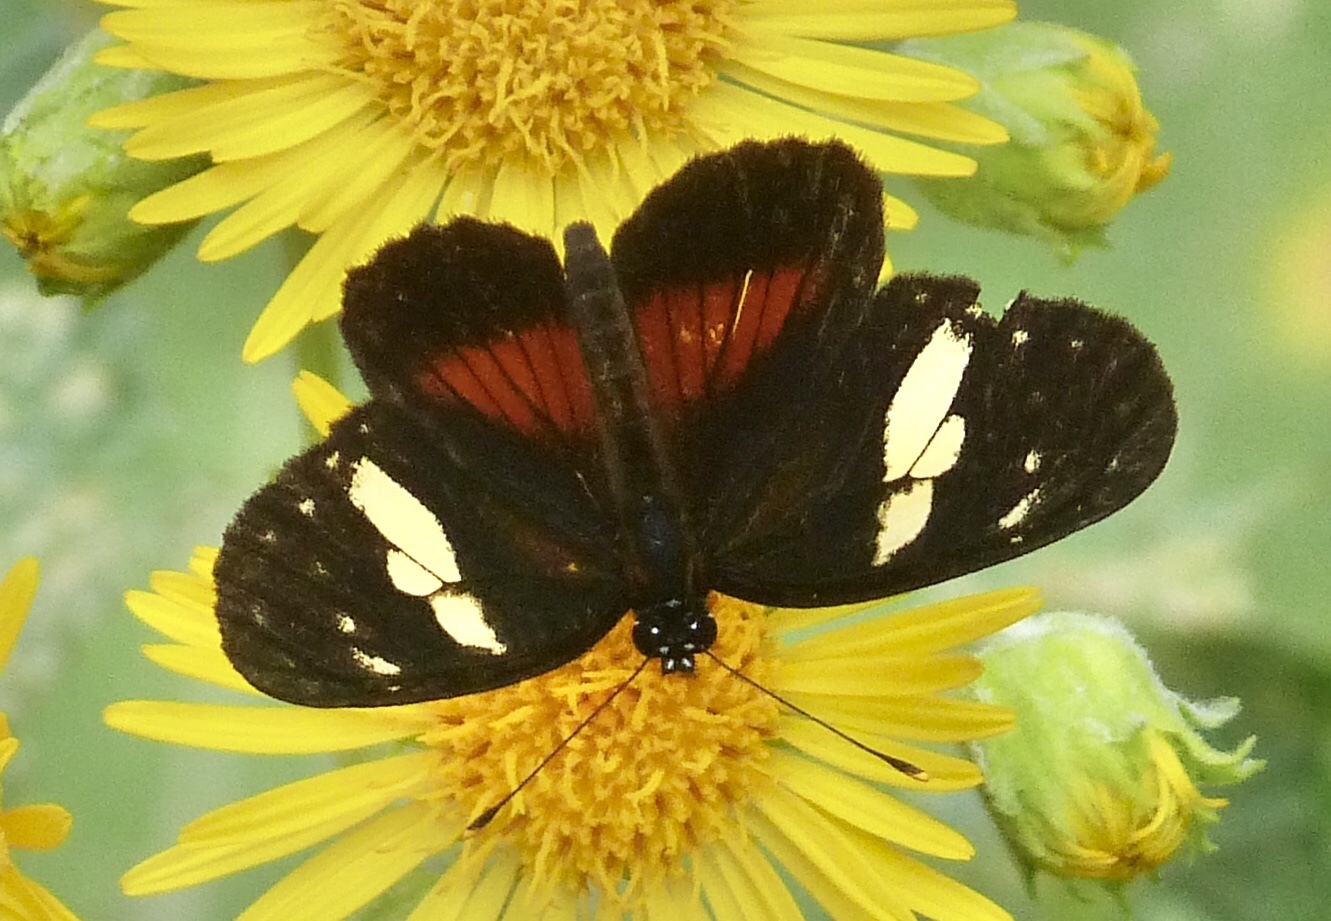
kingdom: Animalia
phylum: Arthropoda
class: Insecta
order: Lepidoptera
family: Nymphalidae
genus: Eresia
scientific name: Eresia datis
